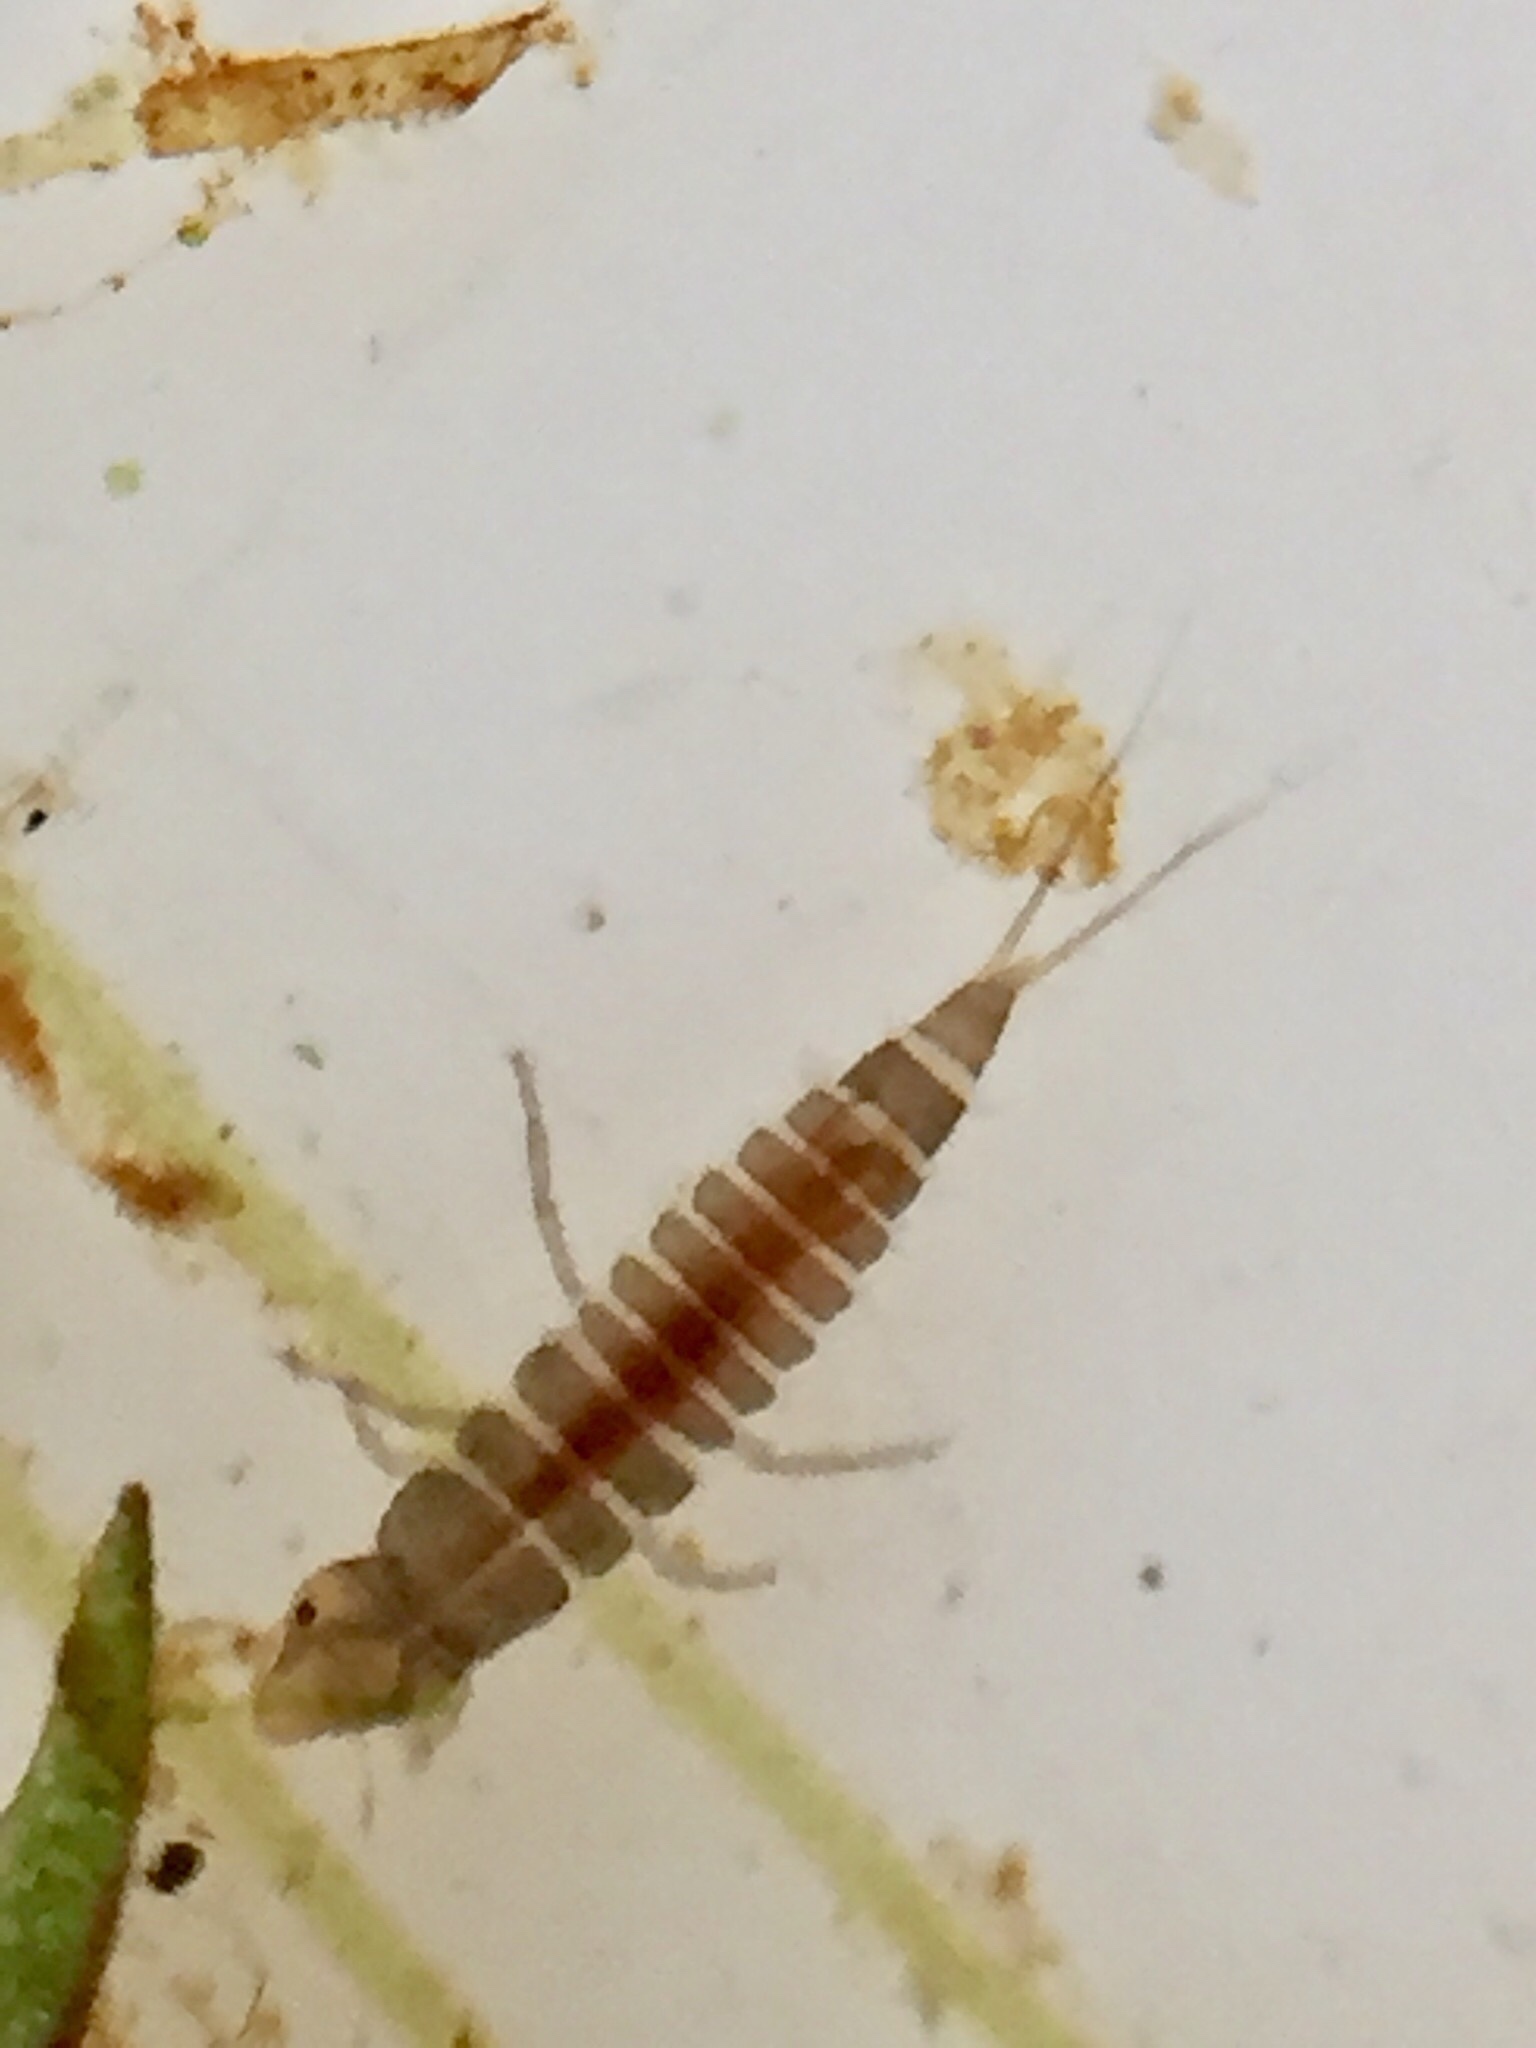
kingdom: Animalia
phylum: Arthropoda
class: Insecta
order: Coleoptera
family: Dytiscidae
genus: Liodessus
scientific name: Liodessus
